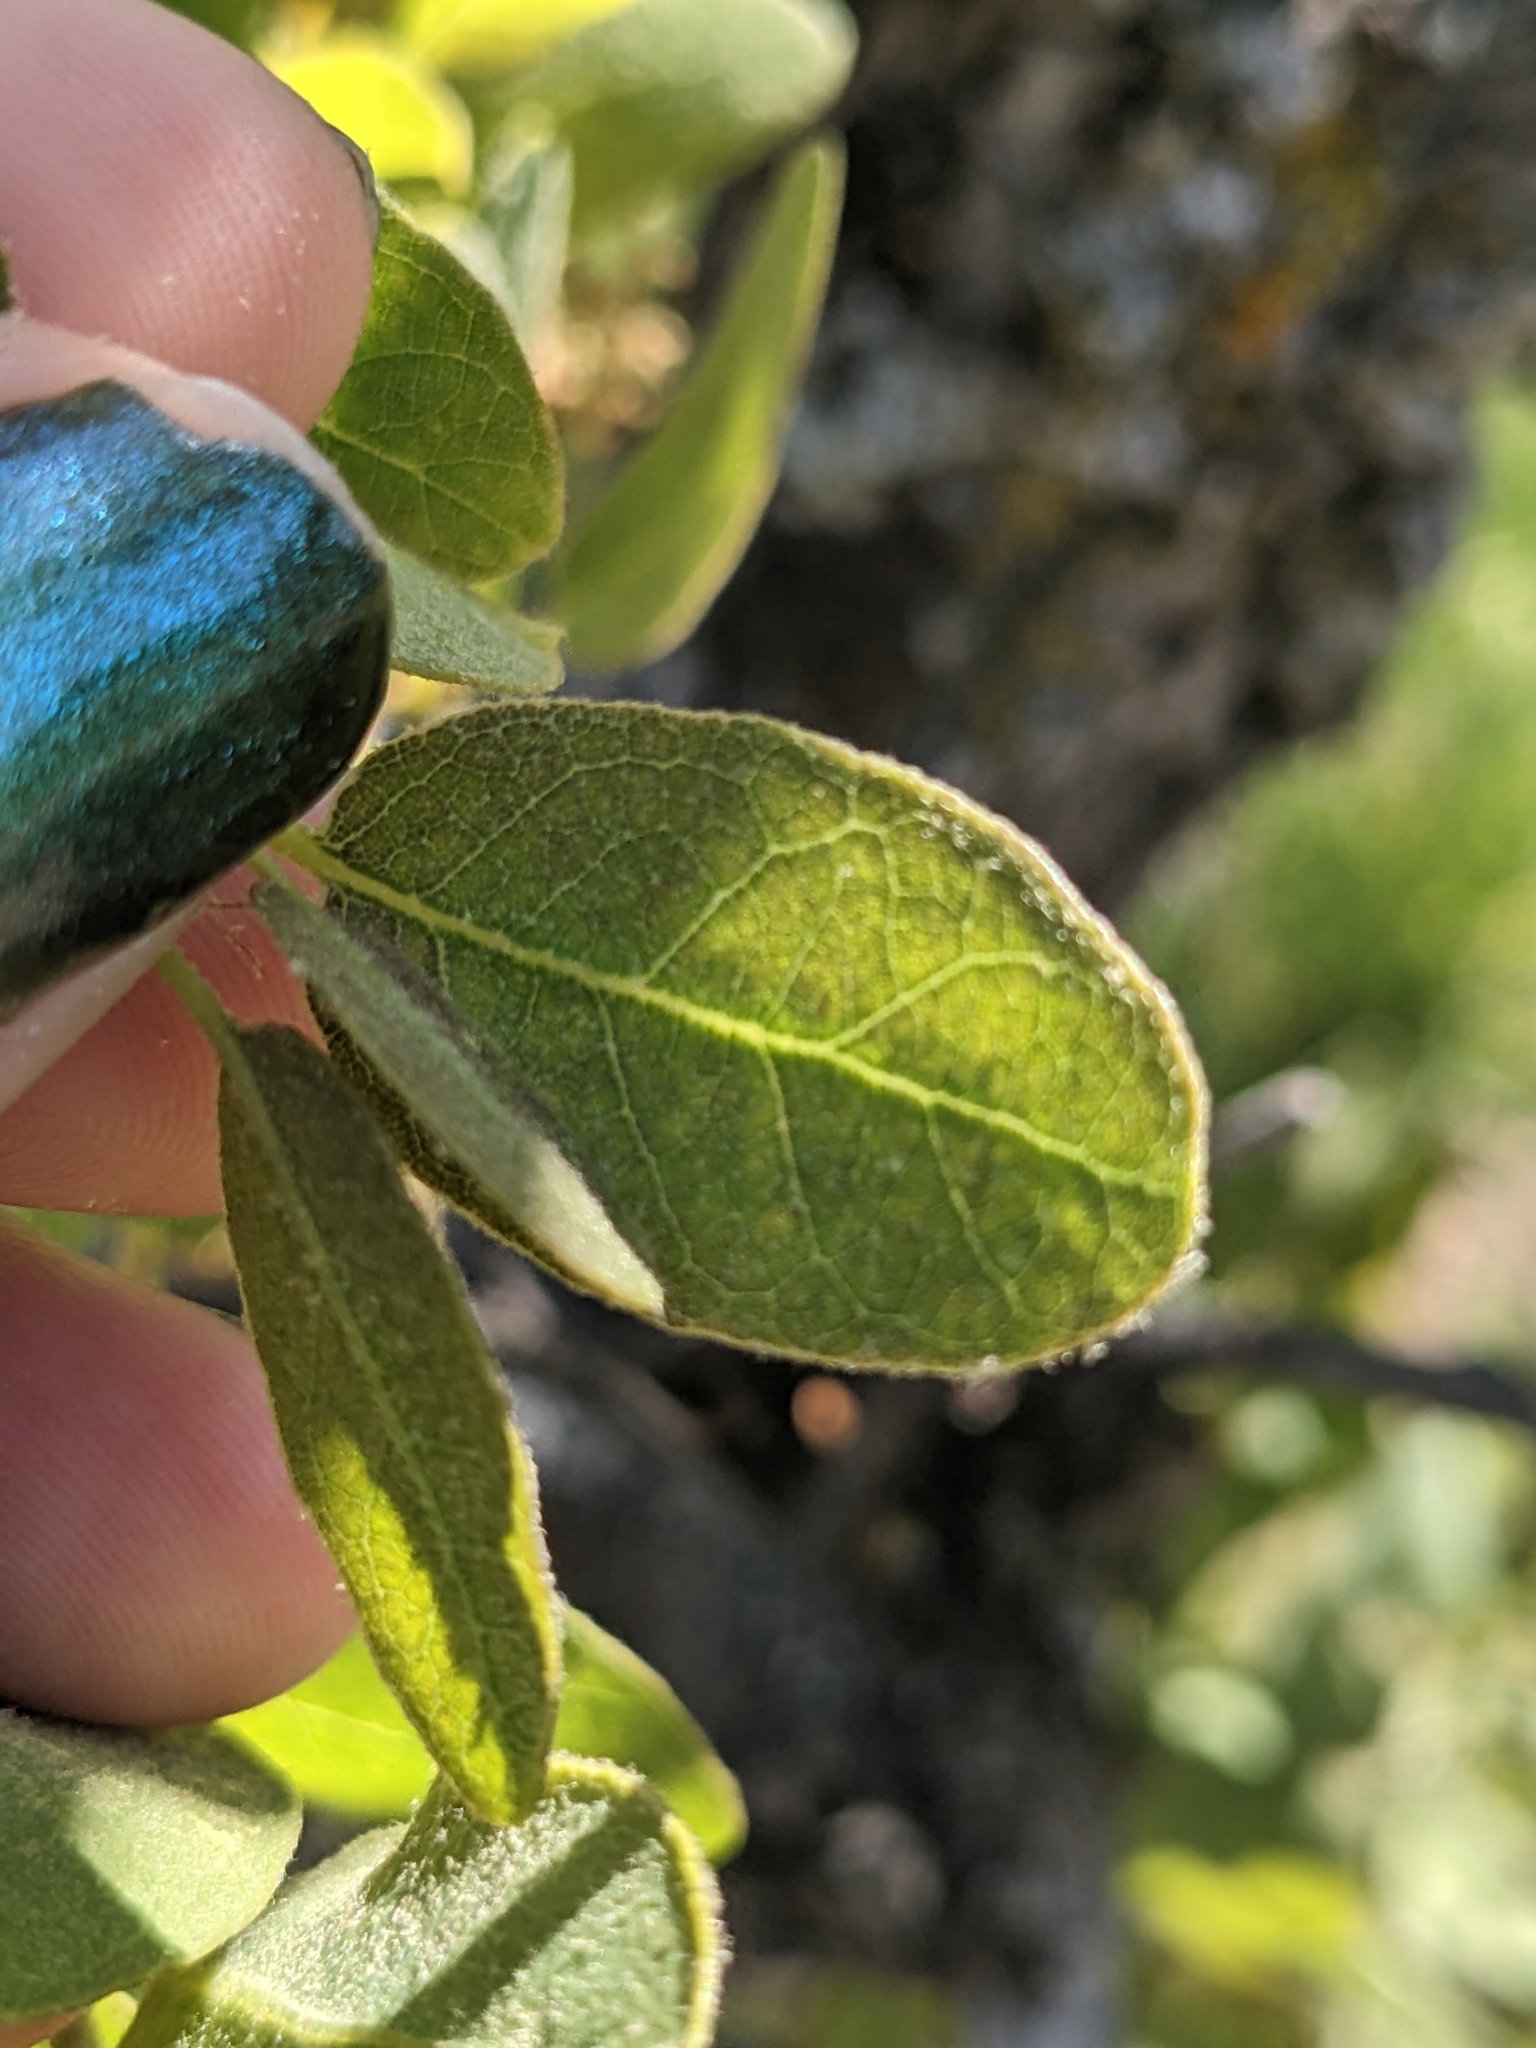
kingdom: Plantae
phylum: Tracheophyta
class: Magnoliopsida
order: Fagales
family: Fagaceae
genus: Quercus
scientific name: Quercus engelmannii
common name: Engelmann oak
